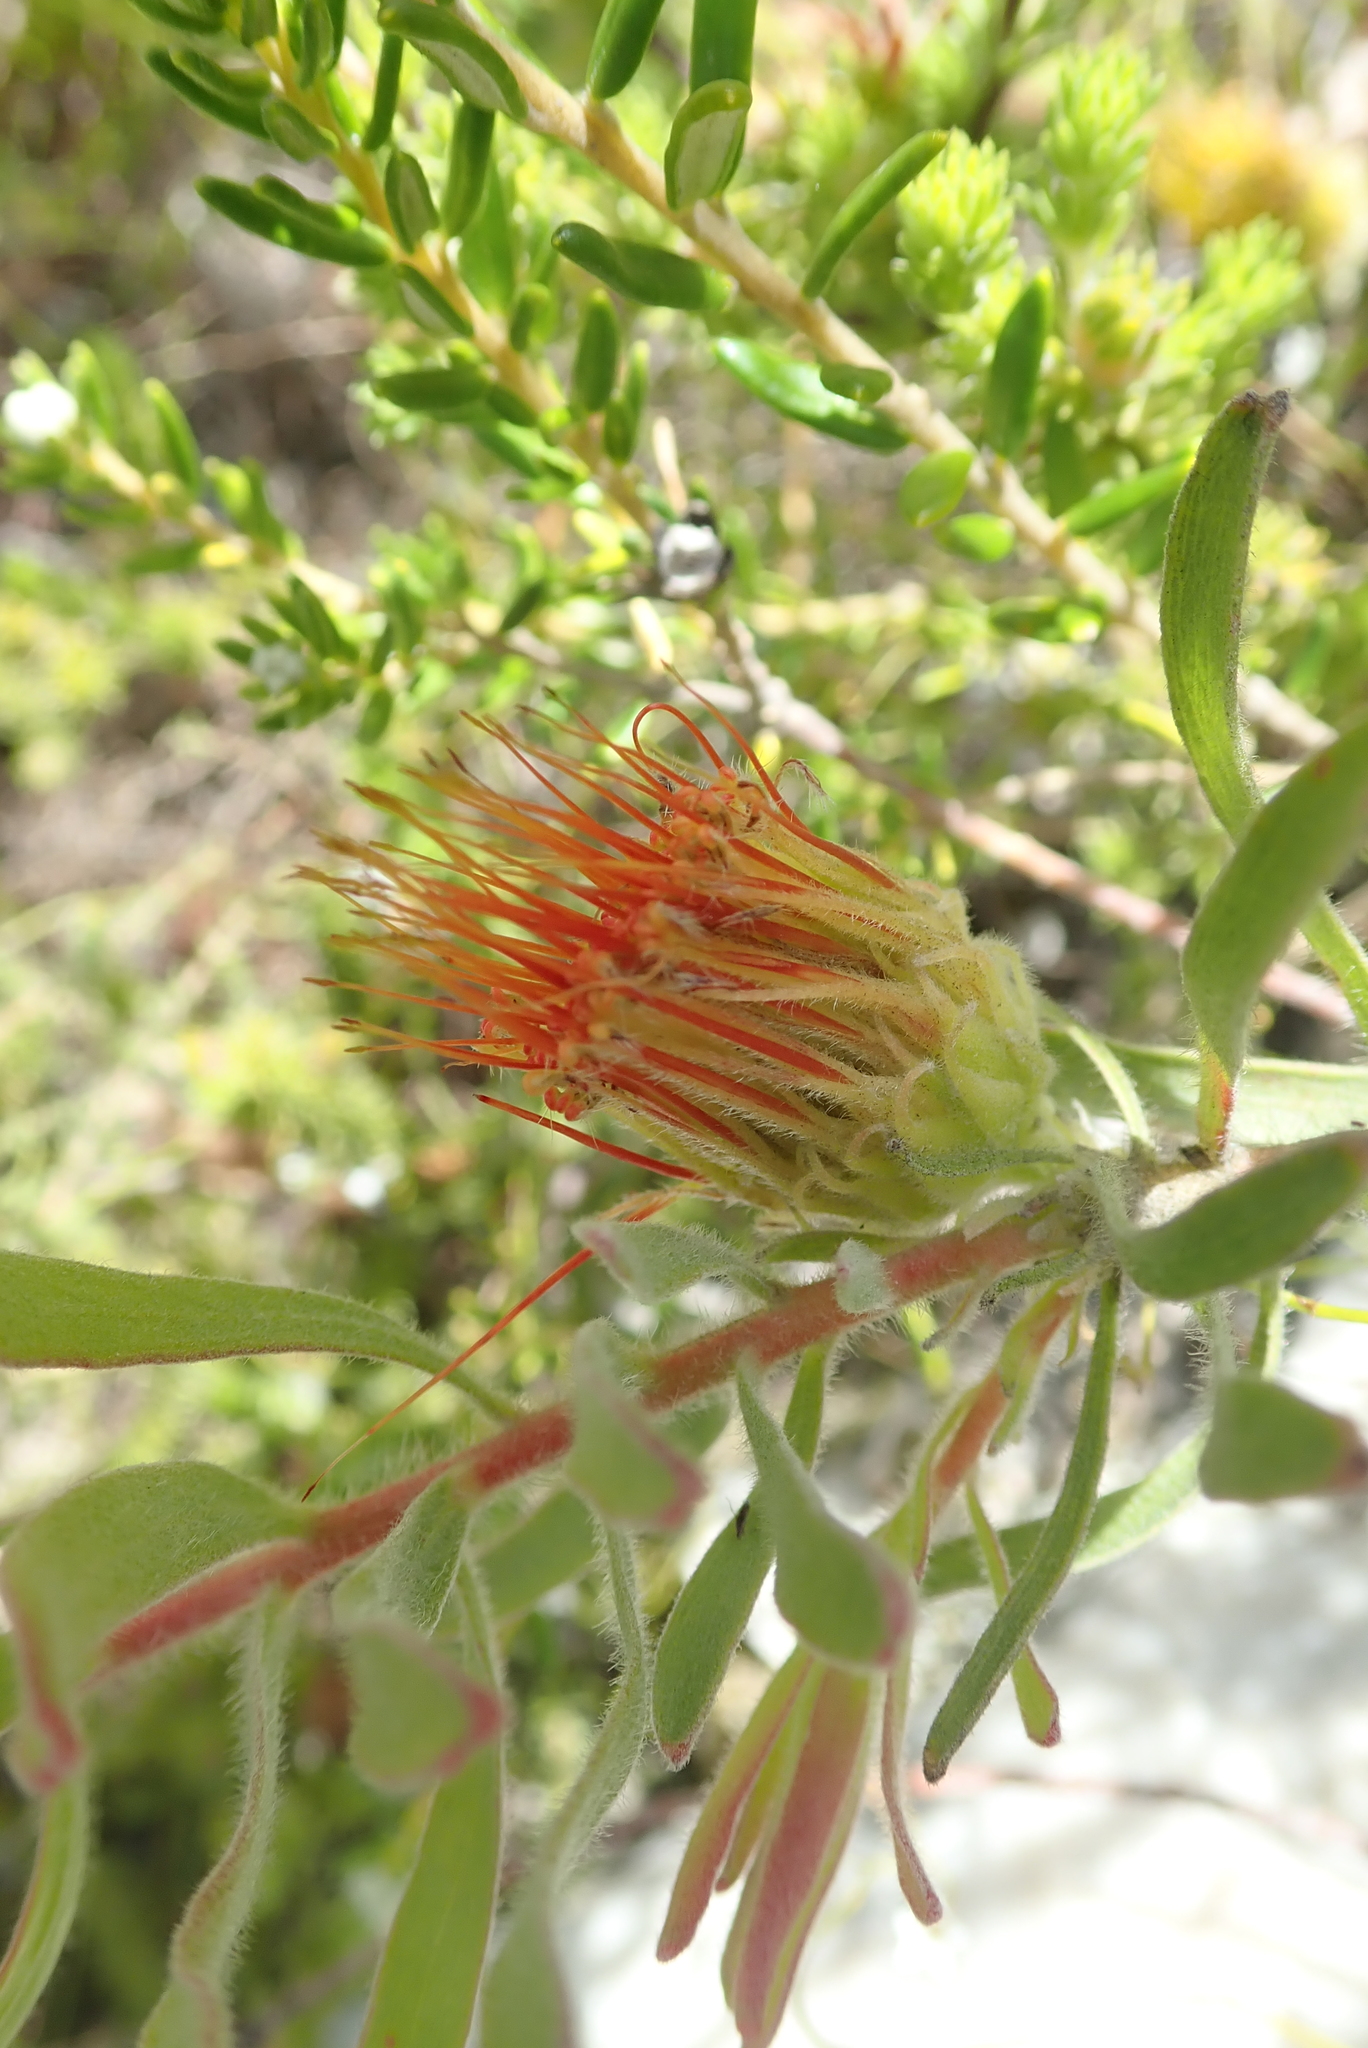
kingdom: Plantae
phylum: Tracheophyta
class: Magnoliopsida
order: Proteales
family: Proteaceae
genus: Leucospermum
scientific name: Leucospermum gracile
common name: Hermanus pincushion
